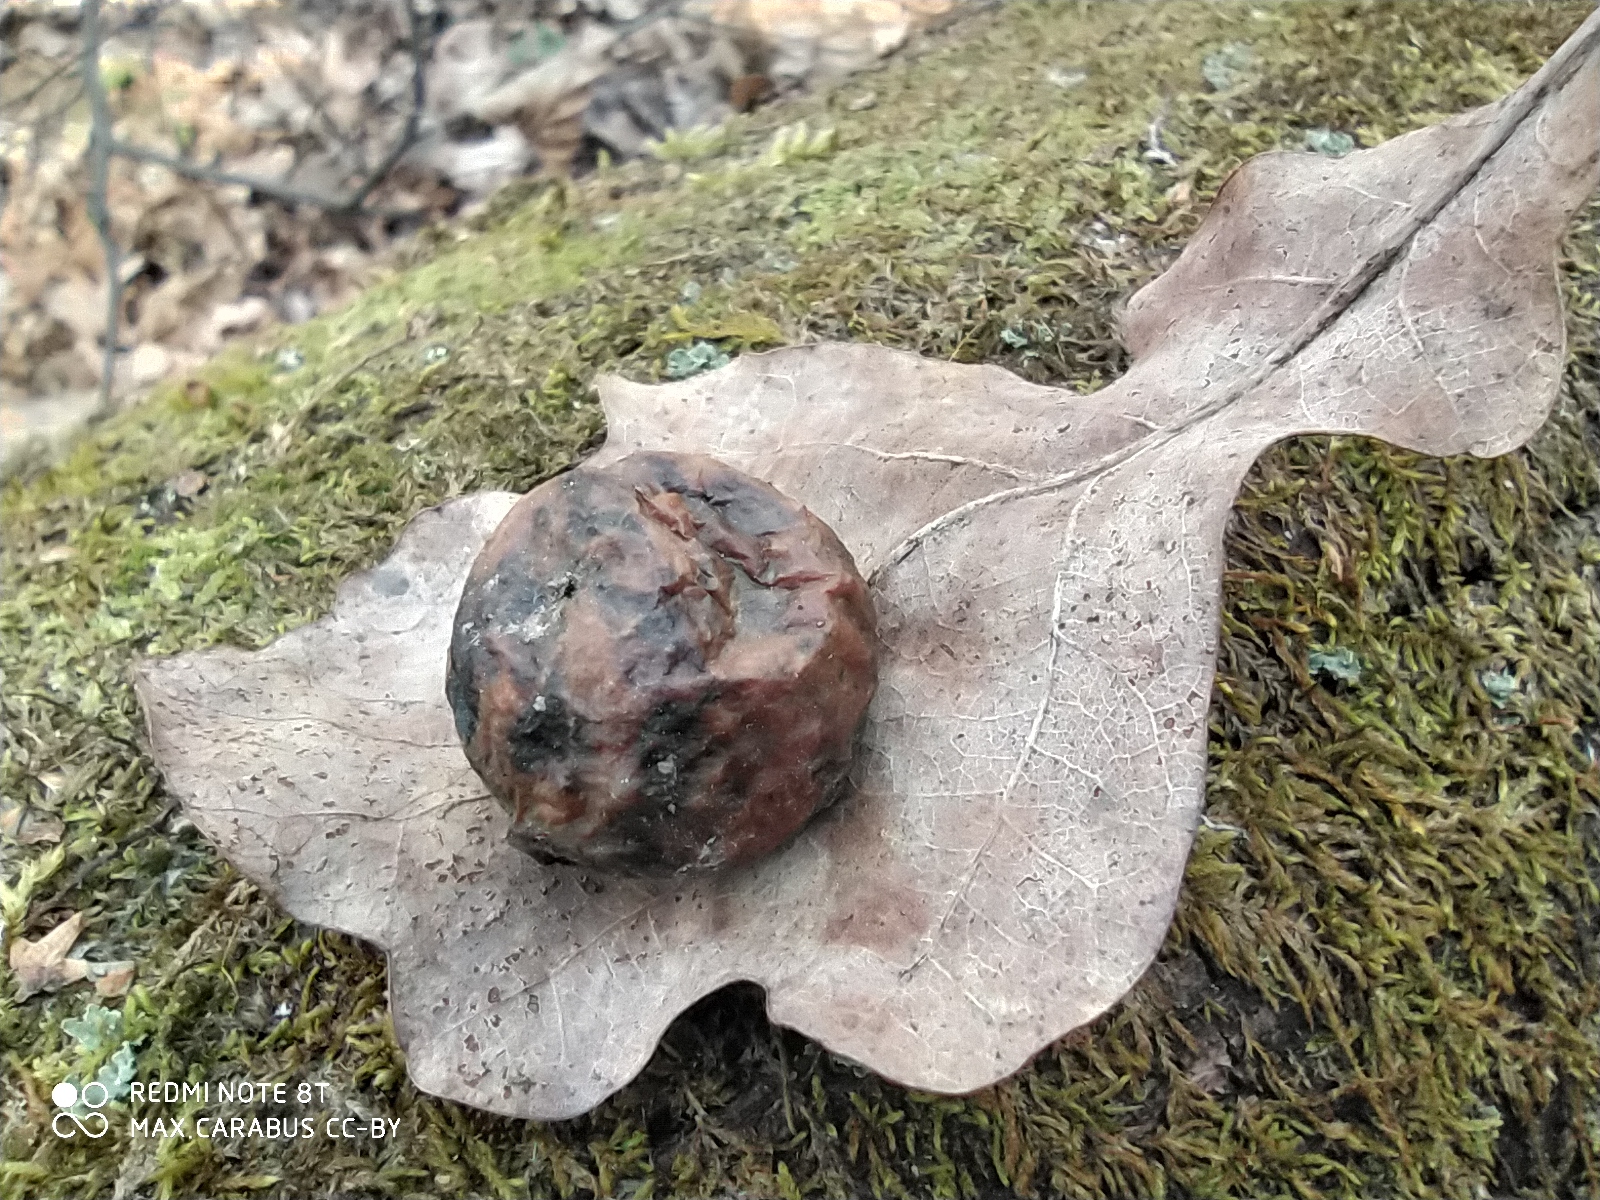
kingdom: Animalia
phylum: Arthropoda
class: Insecta
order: Hymenoptera
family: Cynipidae
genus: Cynips
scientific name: Cynips quercusfolii
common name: Cherry gall
